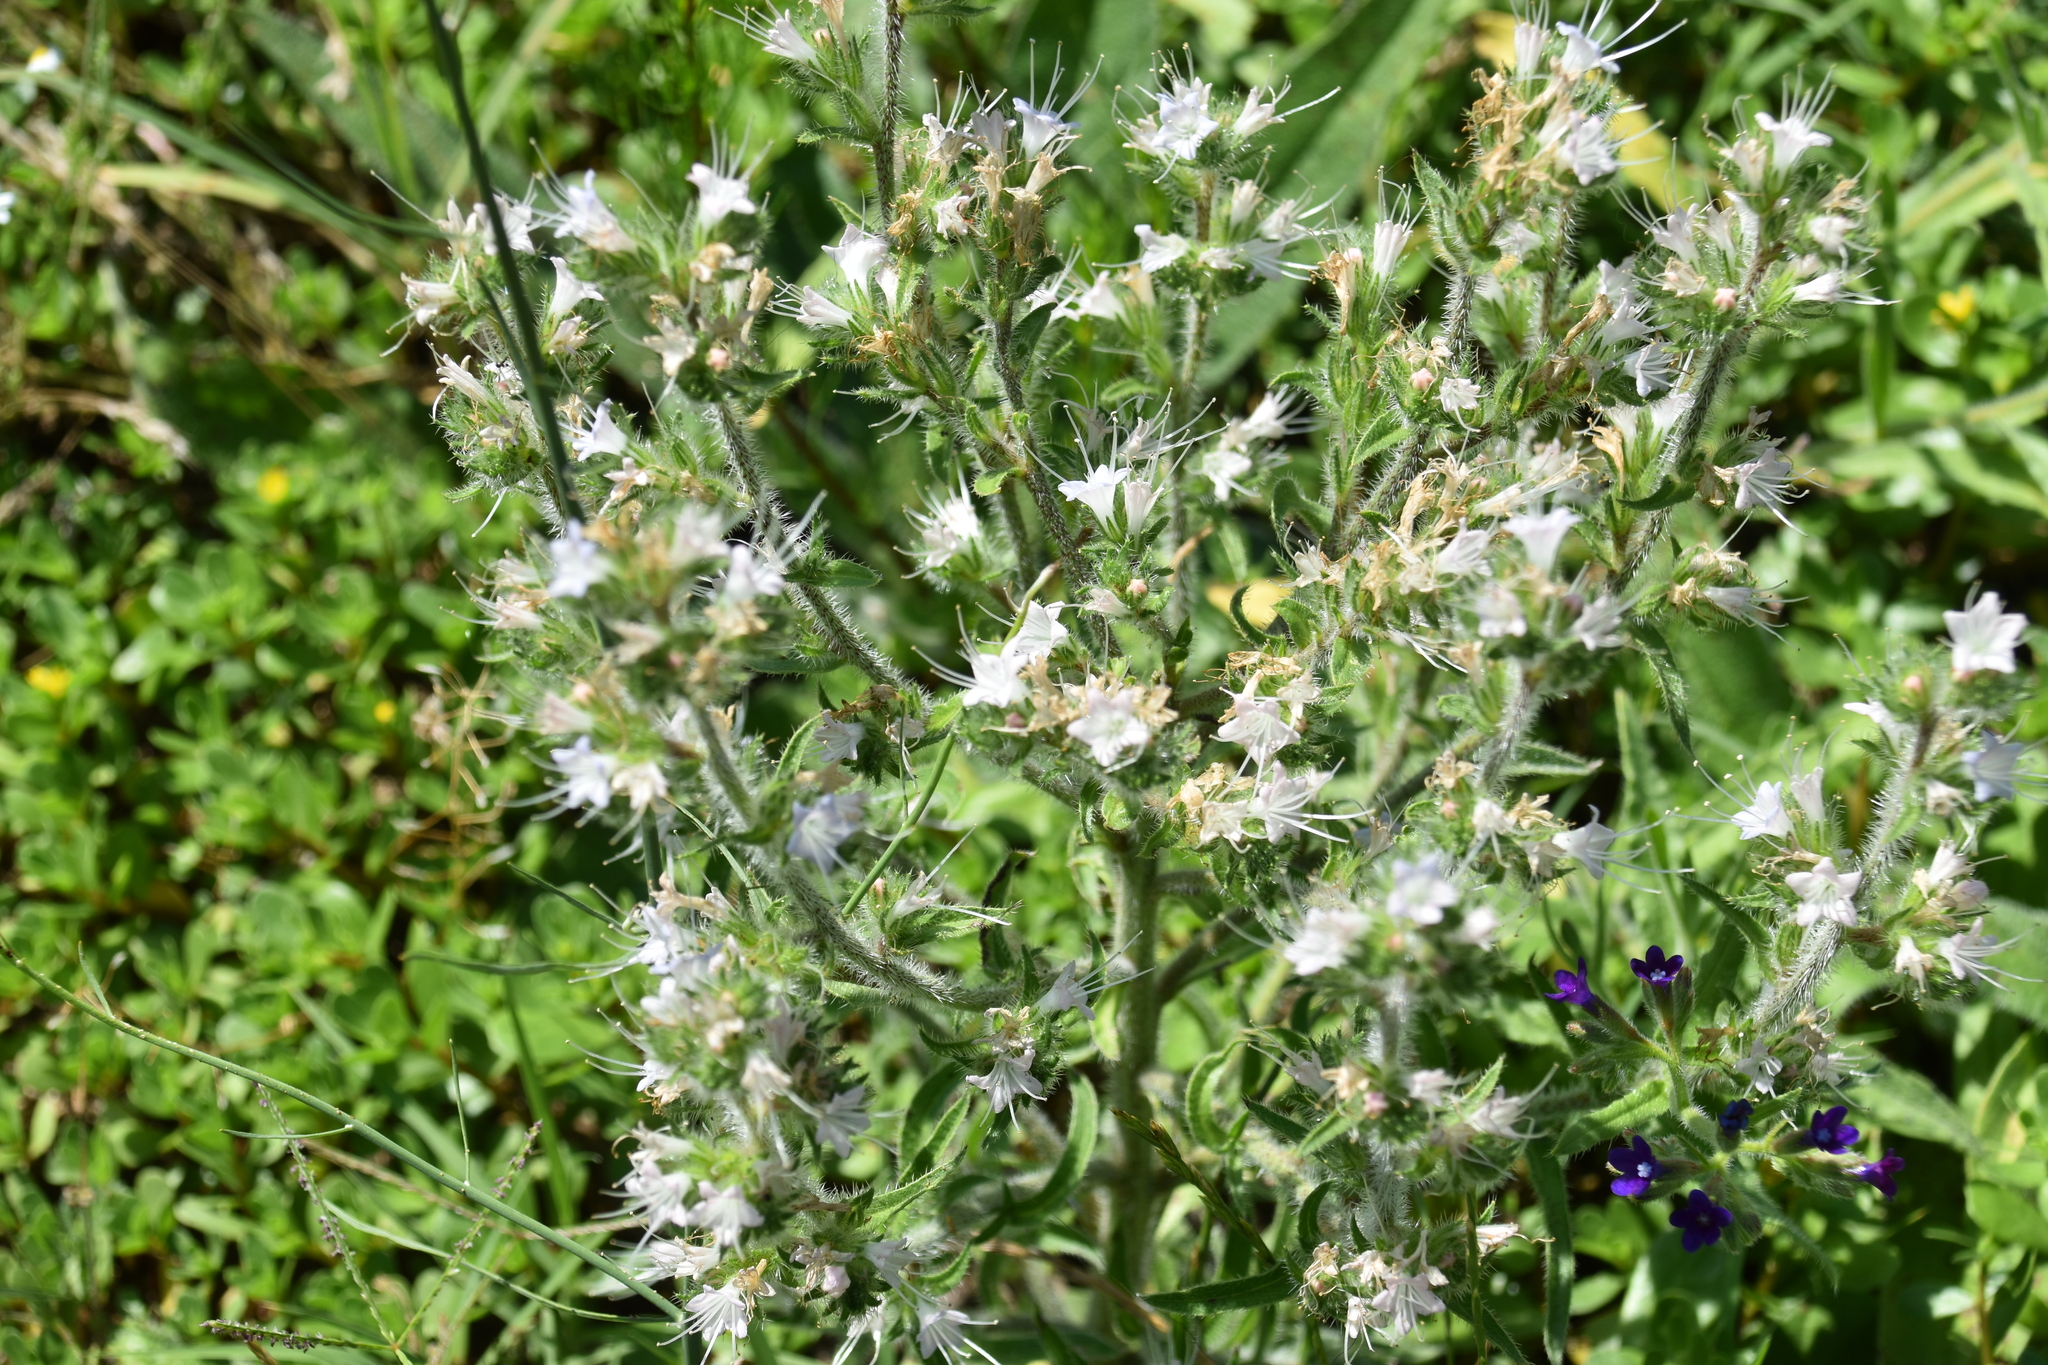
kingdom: Plantae
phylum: Tracheophyta
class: Magnoliopsida
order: Boraginales
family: Boraginaceae
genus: Echium
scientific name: Echium italicum
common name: Italian viper's bugloss
